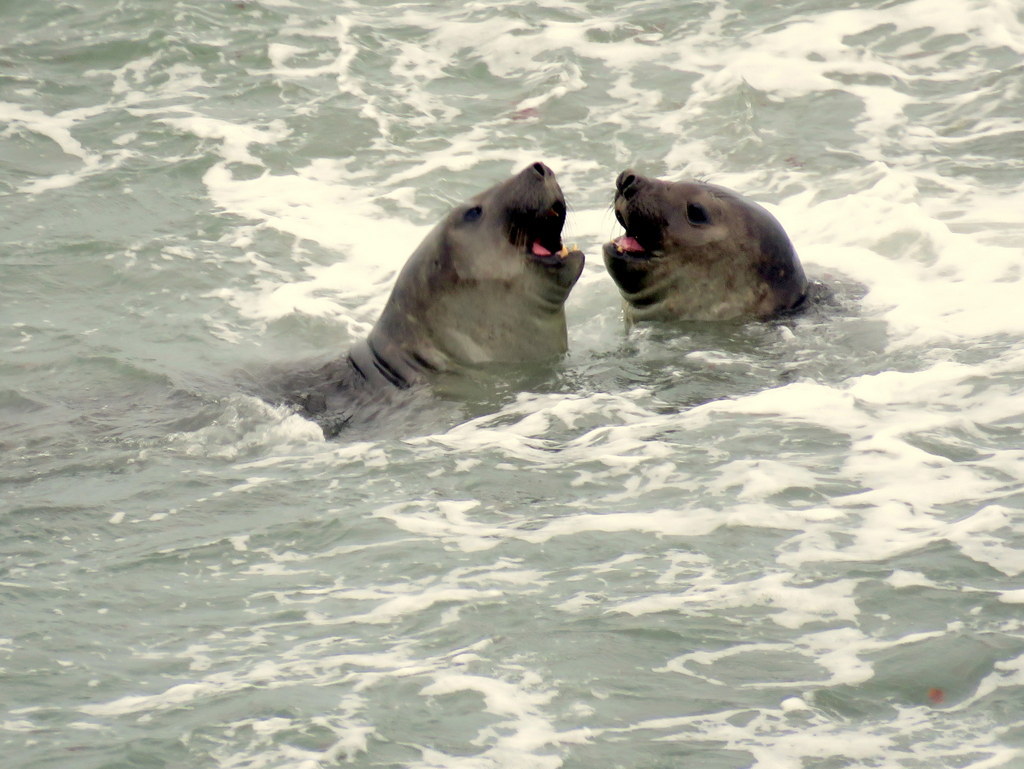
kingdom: Animalia
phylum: Chordata
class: Mammalia
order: Carnivora
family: Phocidae
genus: Mirounga
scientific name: Mirounga leonina
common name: Southern elephant seal
